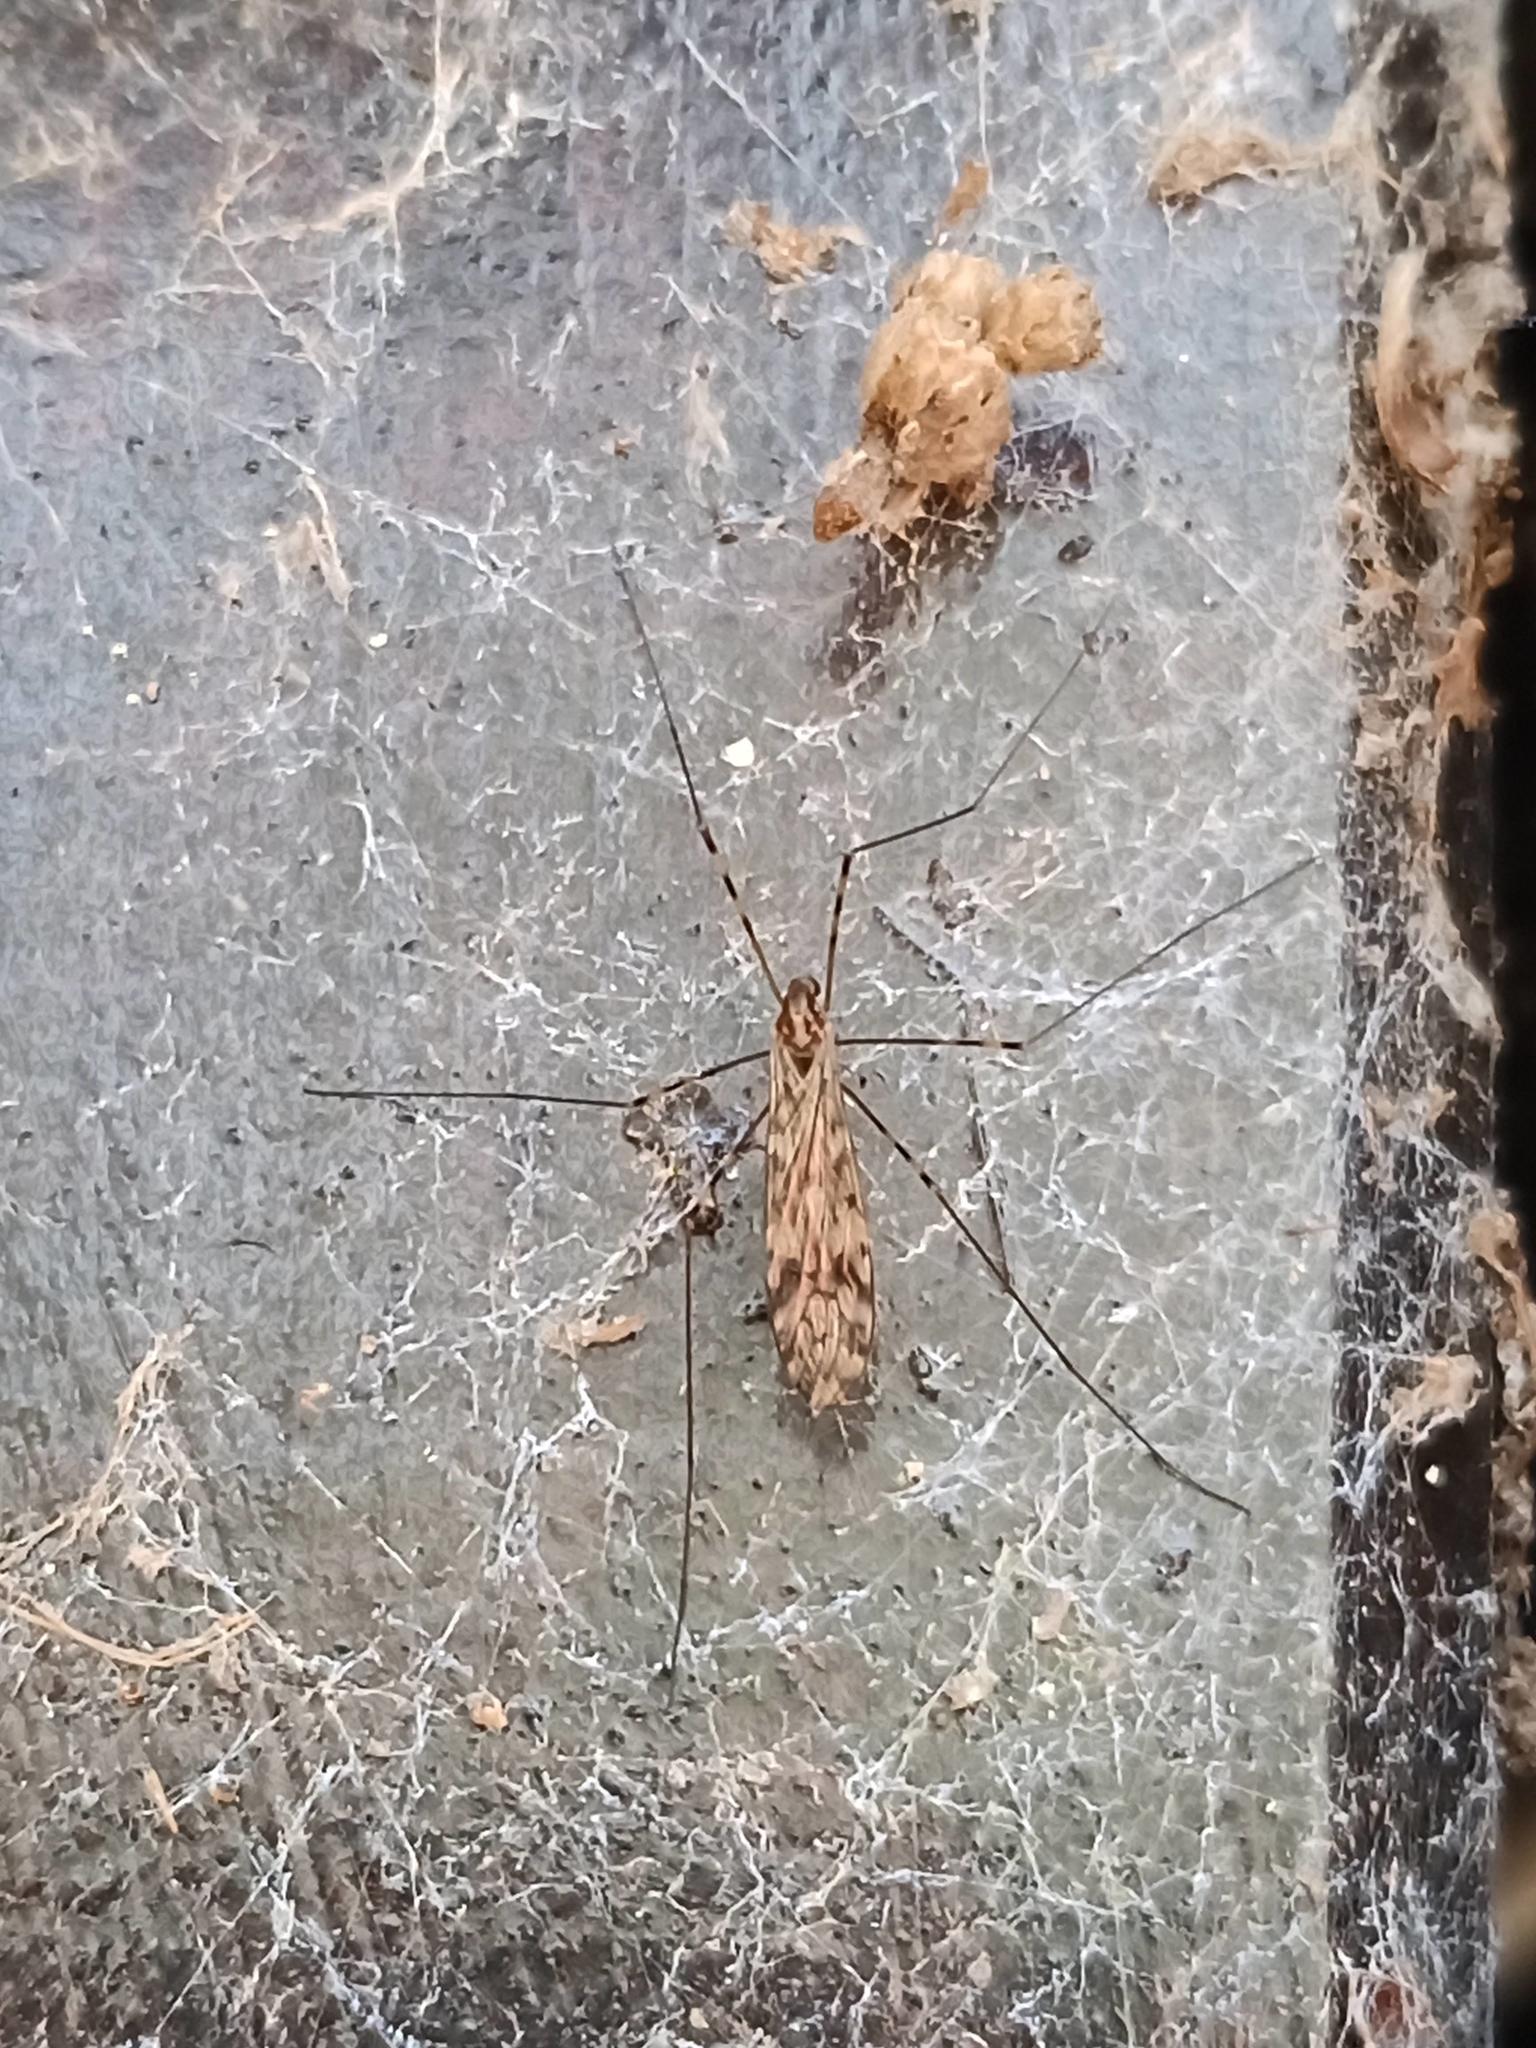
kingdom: Animalia
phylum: Arthropoda
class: Insecta
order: Diptera
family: Limoniidae
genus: Limonia
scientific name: Limonia nubeculosa
